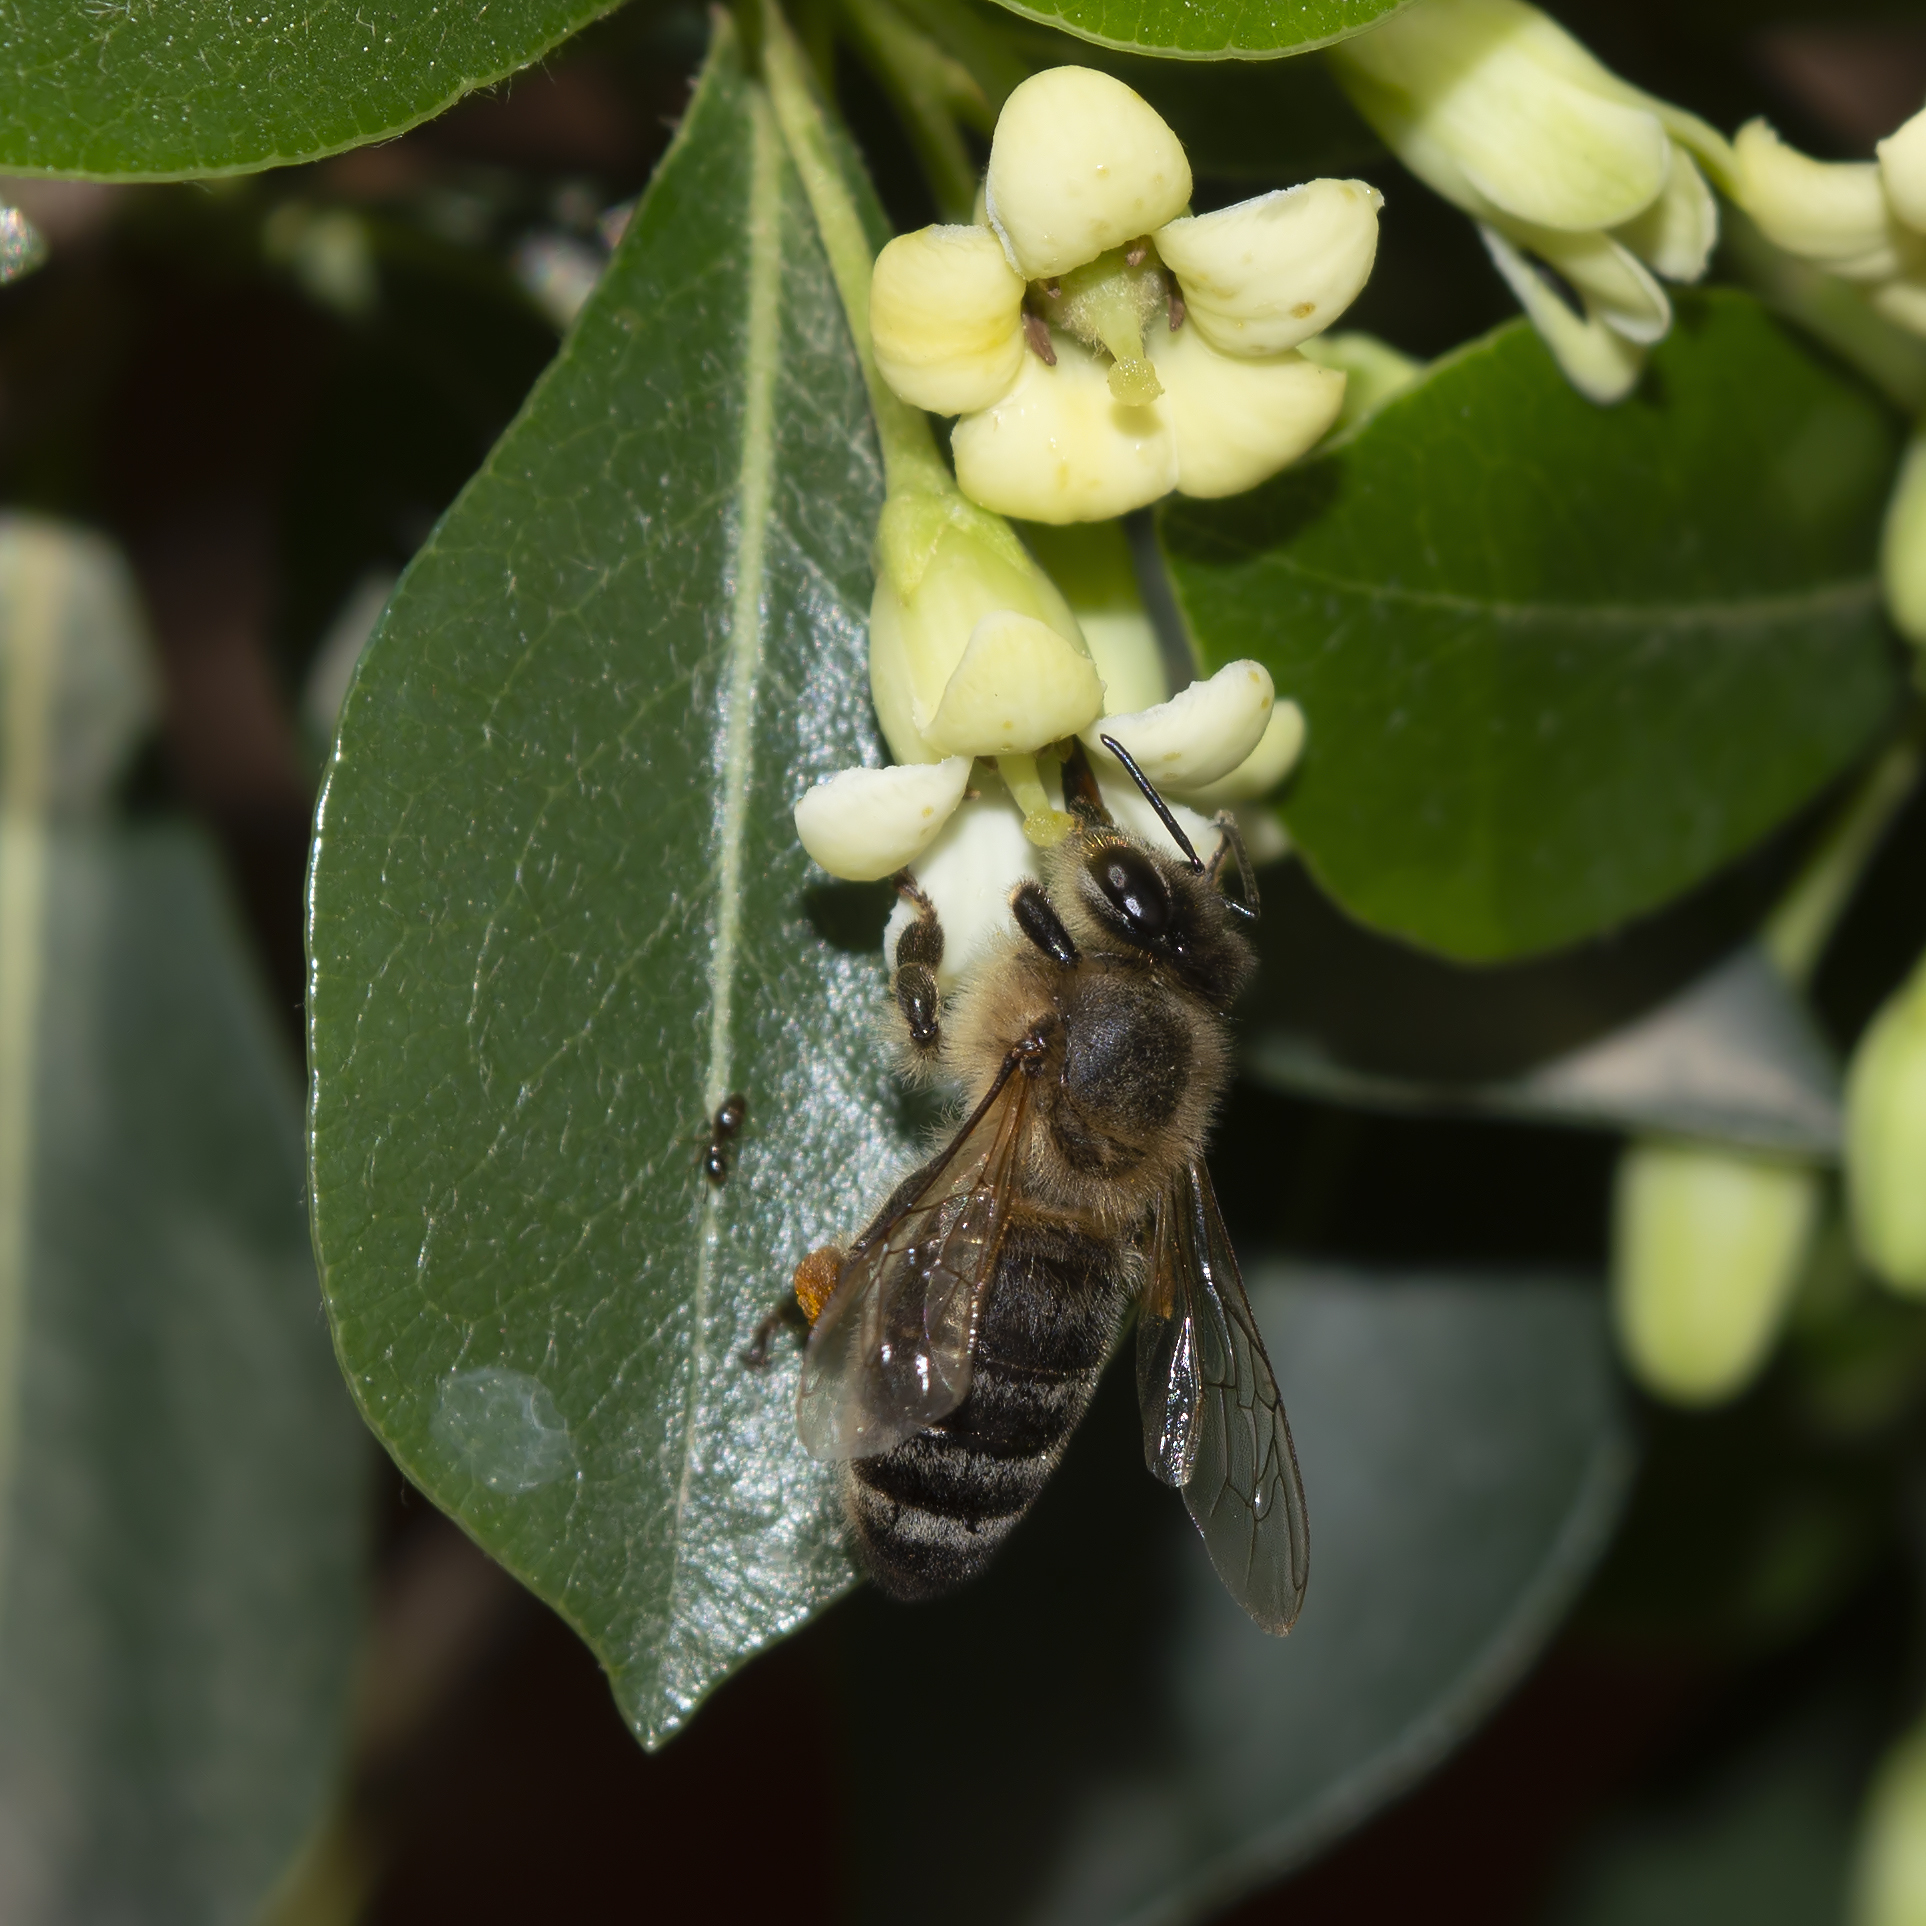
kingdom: Animalia
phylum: Arthropoda
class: Insecta
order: Hymenoptera
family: Apidae
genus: Apis
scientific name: Apis mellifera
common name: Honey bee
